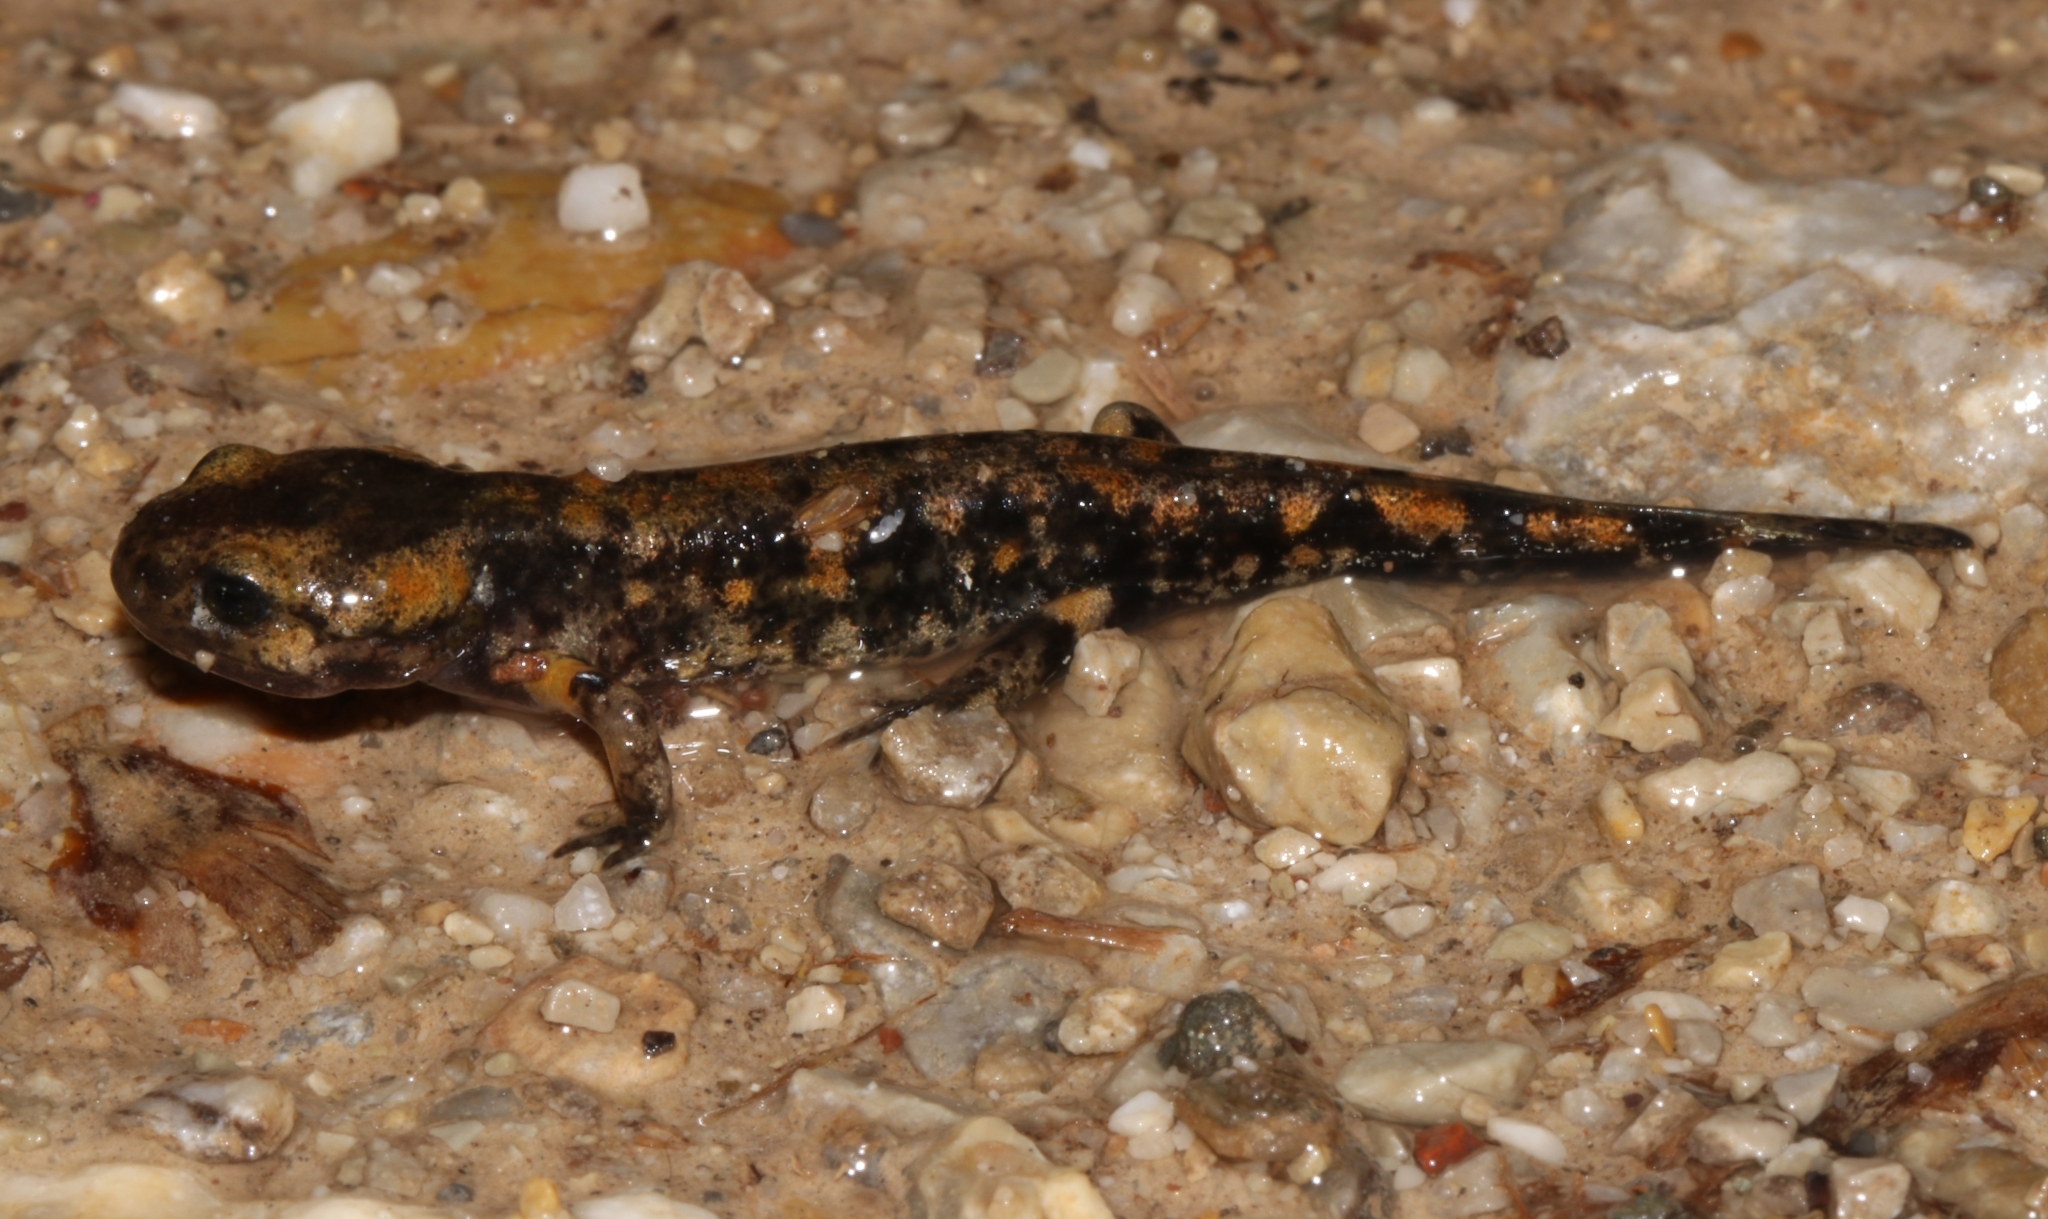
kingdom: Animalia
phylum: Chordata
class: Amphibia
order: Caudata
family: Salamandridae
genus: Salamandra
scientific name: Salamandra salamandra
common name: Fire salamander
